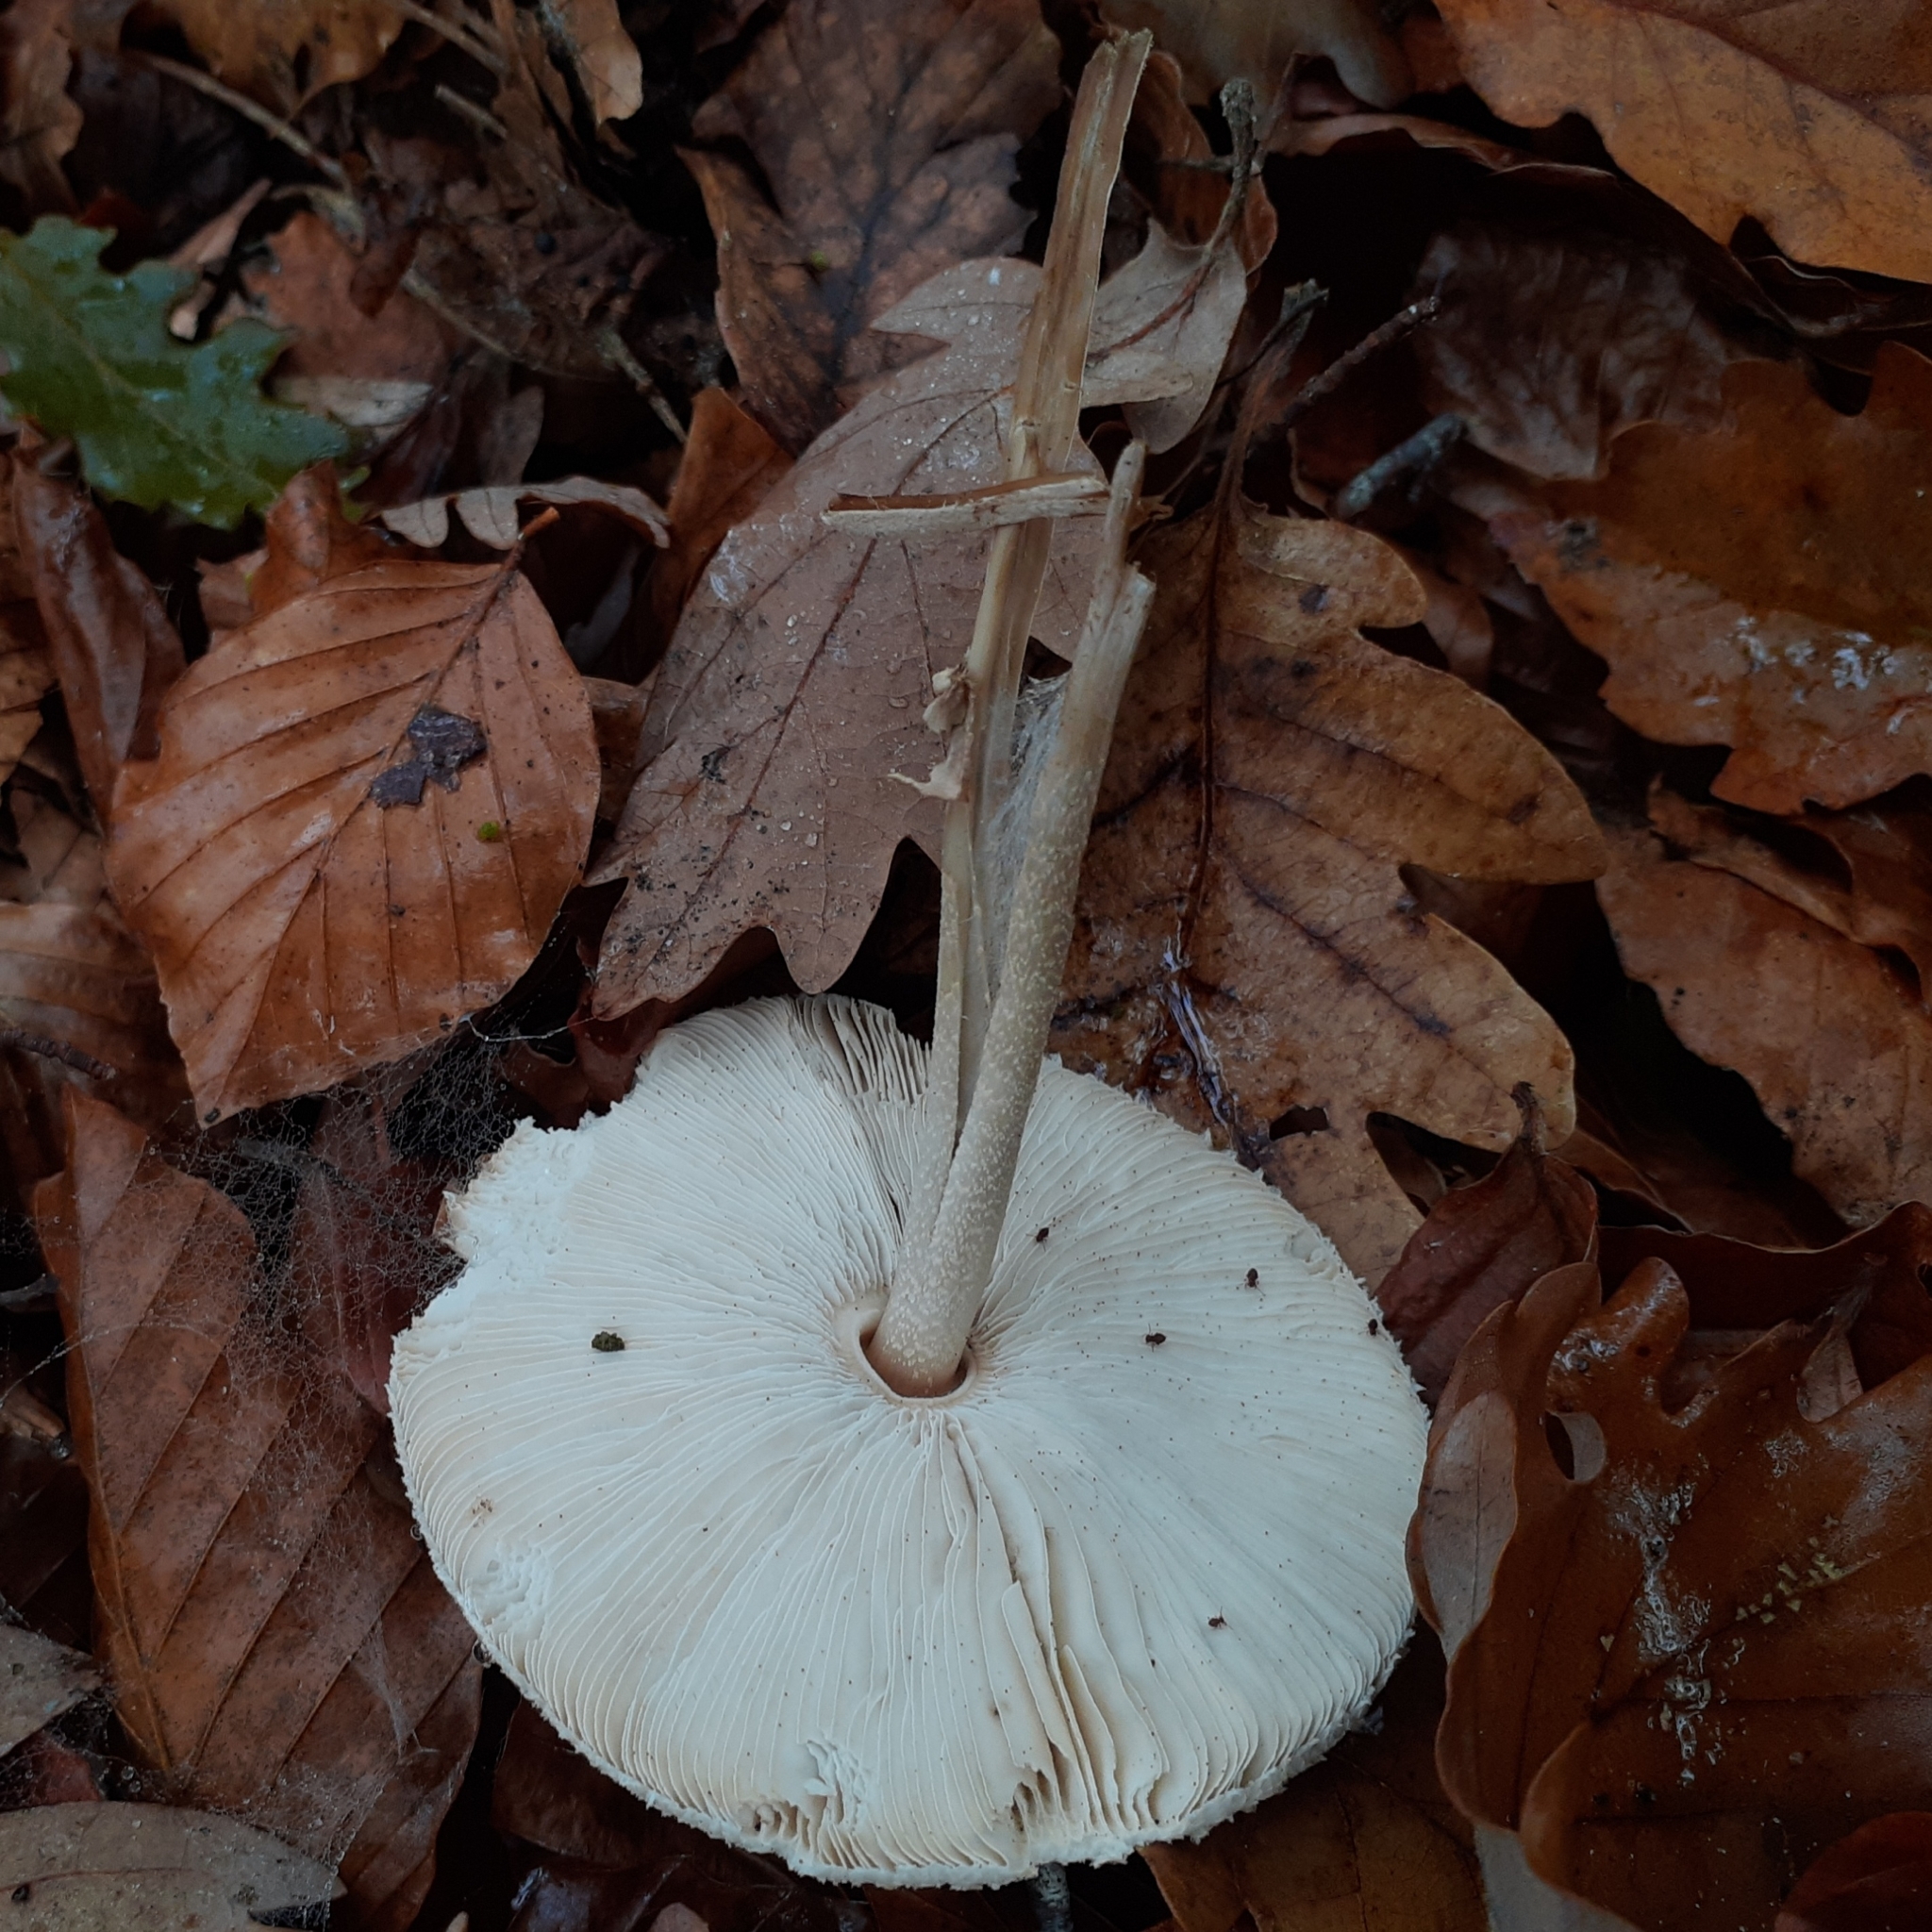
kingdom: Fungi
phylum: Basidiomycota
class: Agaricomycetes
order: Agaricales
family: Agaricaceae
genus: Macrolepiota
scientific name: Macrolepiota mastoidea
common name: Slender parasol
